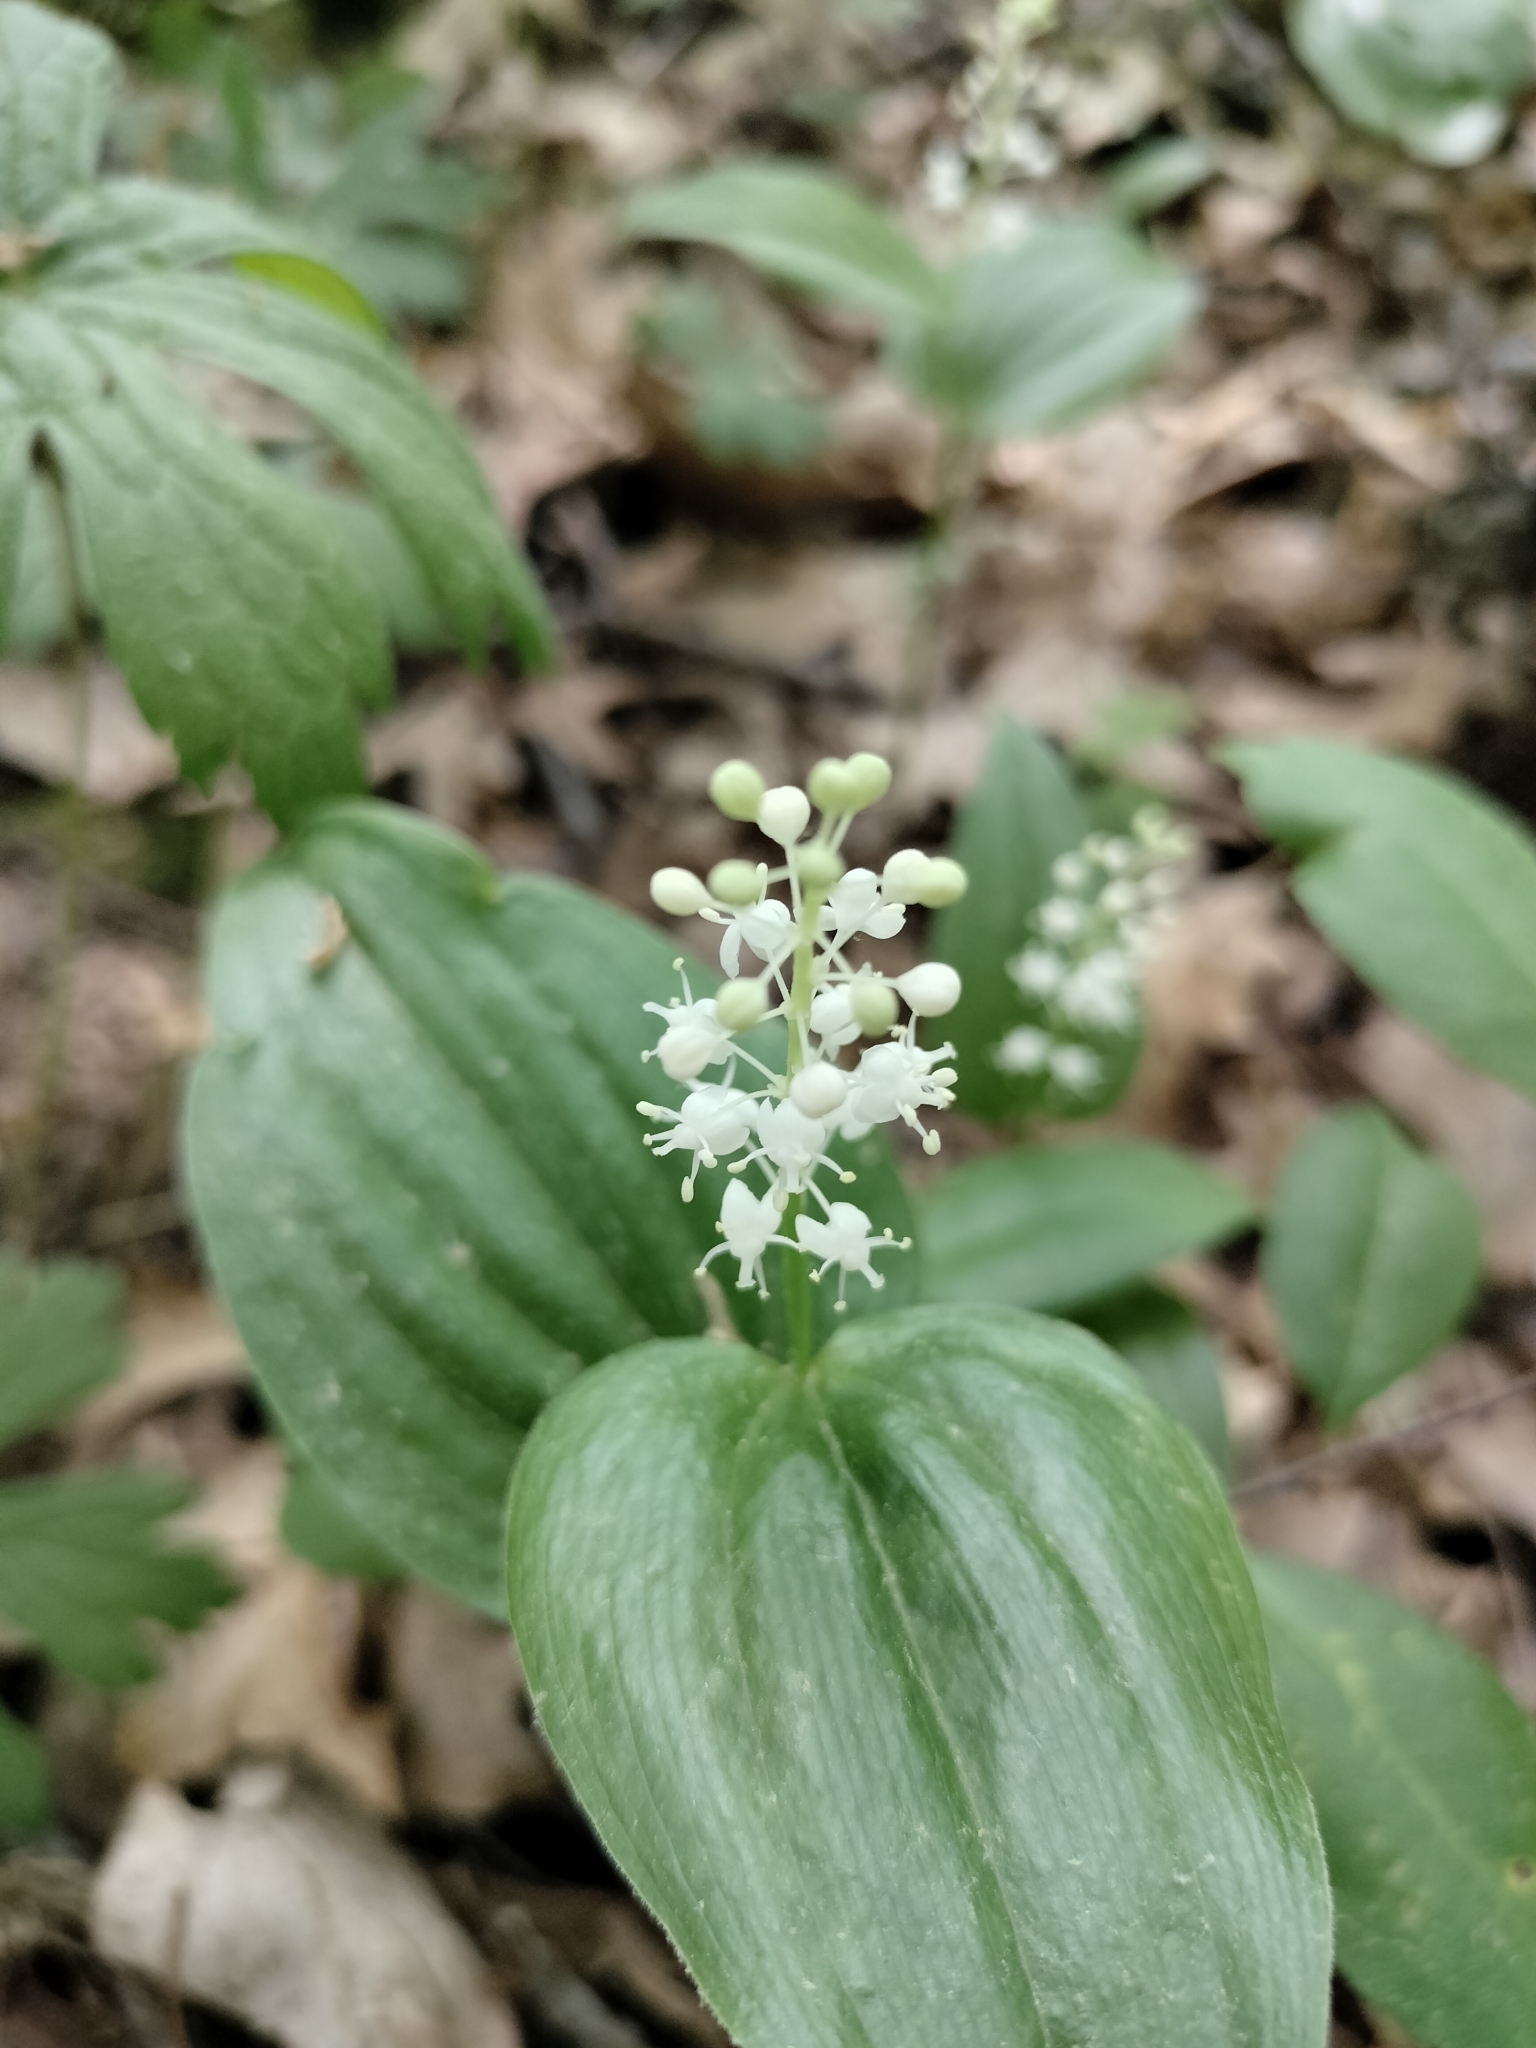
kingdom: Plantae
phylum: Tracheophyta
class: Liliopsida
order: Asparagales
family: Asparagaceae
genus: Maianthemum
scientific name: Maianthemum canadense
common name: False lily-of-the-valley
